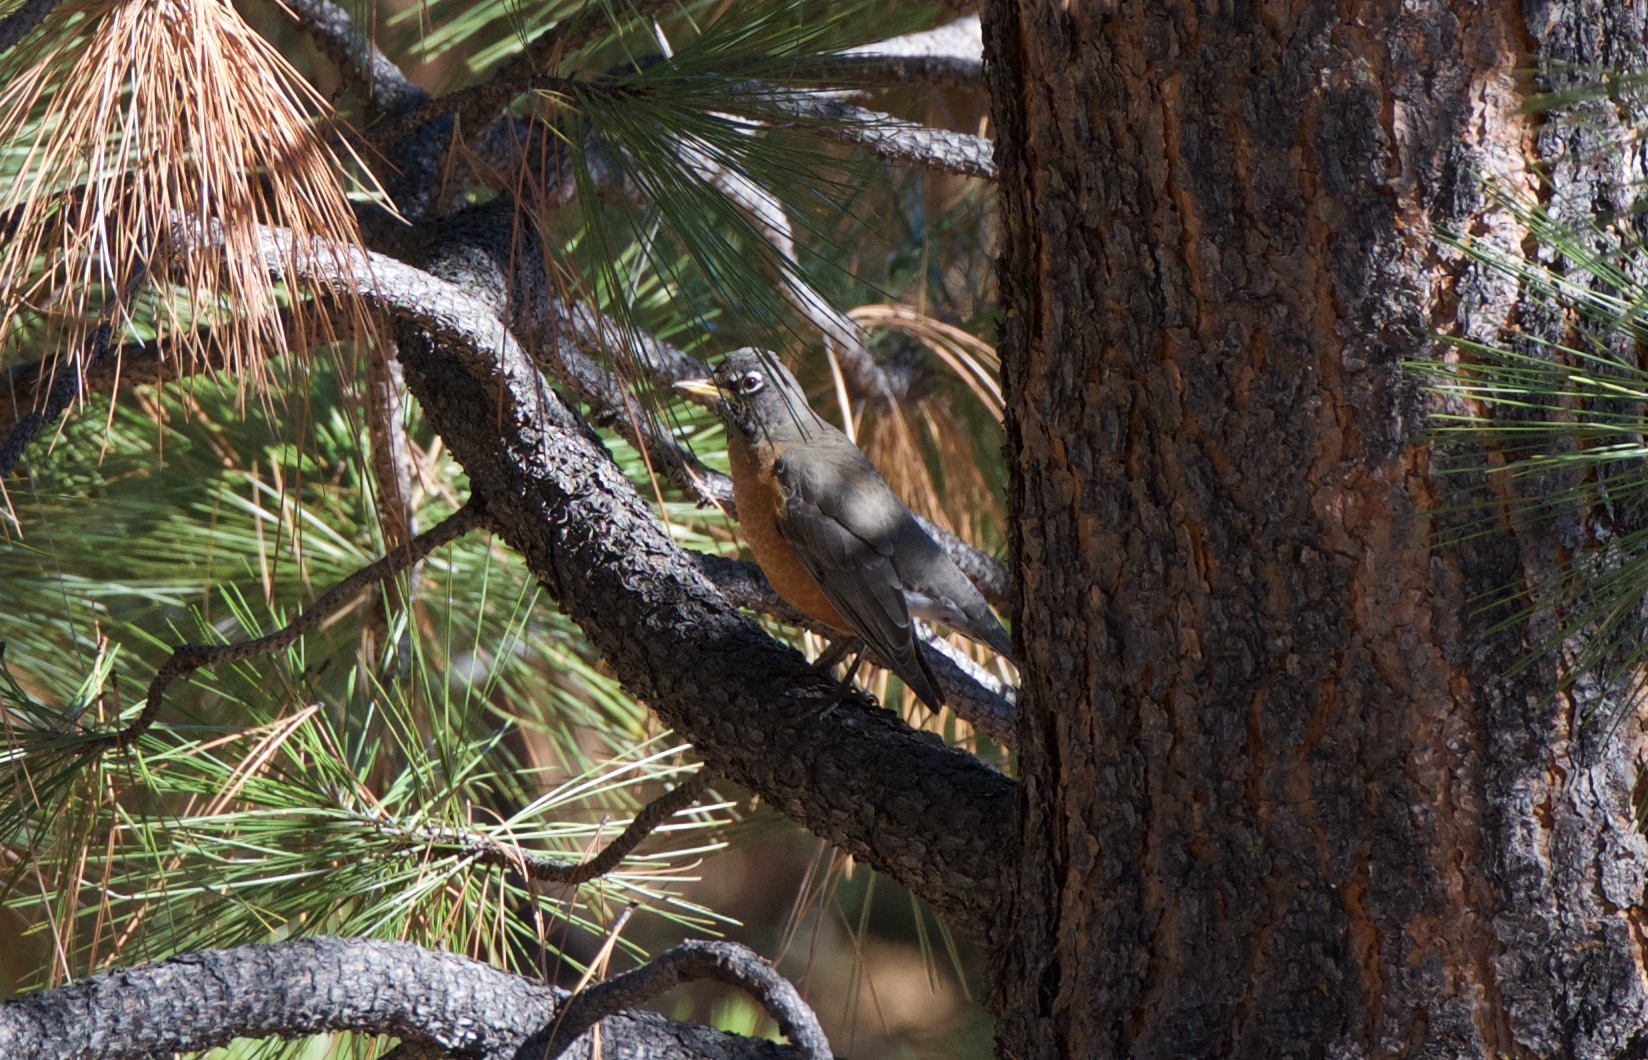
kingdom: Animalia
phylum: Chordata
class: Aves
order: Passeriformes
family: Turdidae
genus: Turdus
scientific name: Turdus migratorius
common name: American robin
